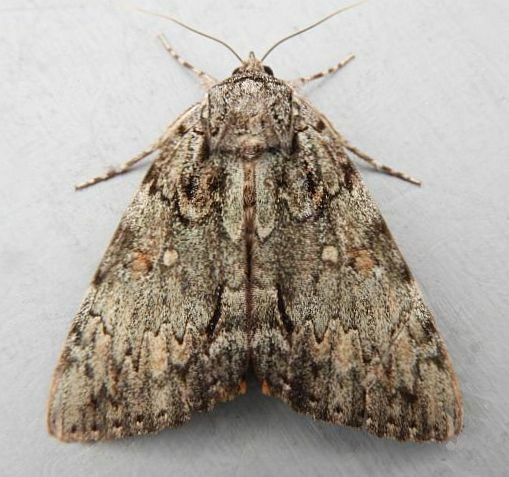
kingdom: Animalia
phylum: Arthropoda
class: Insecta
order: Lepidoptera
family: Erebidae
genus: Catocala
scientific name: Catocala palaeogama
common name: Oldwife underwing
